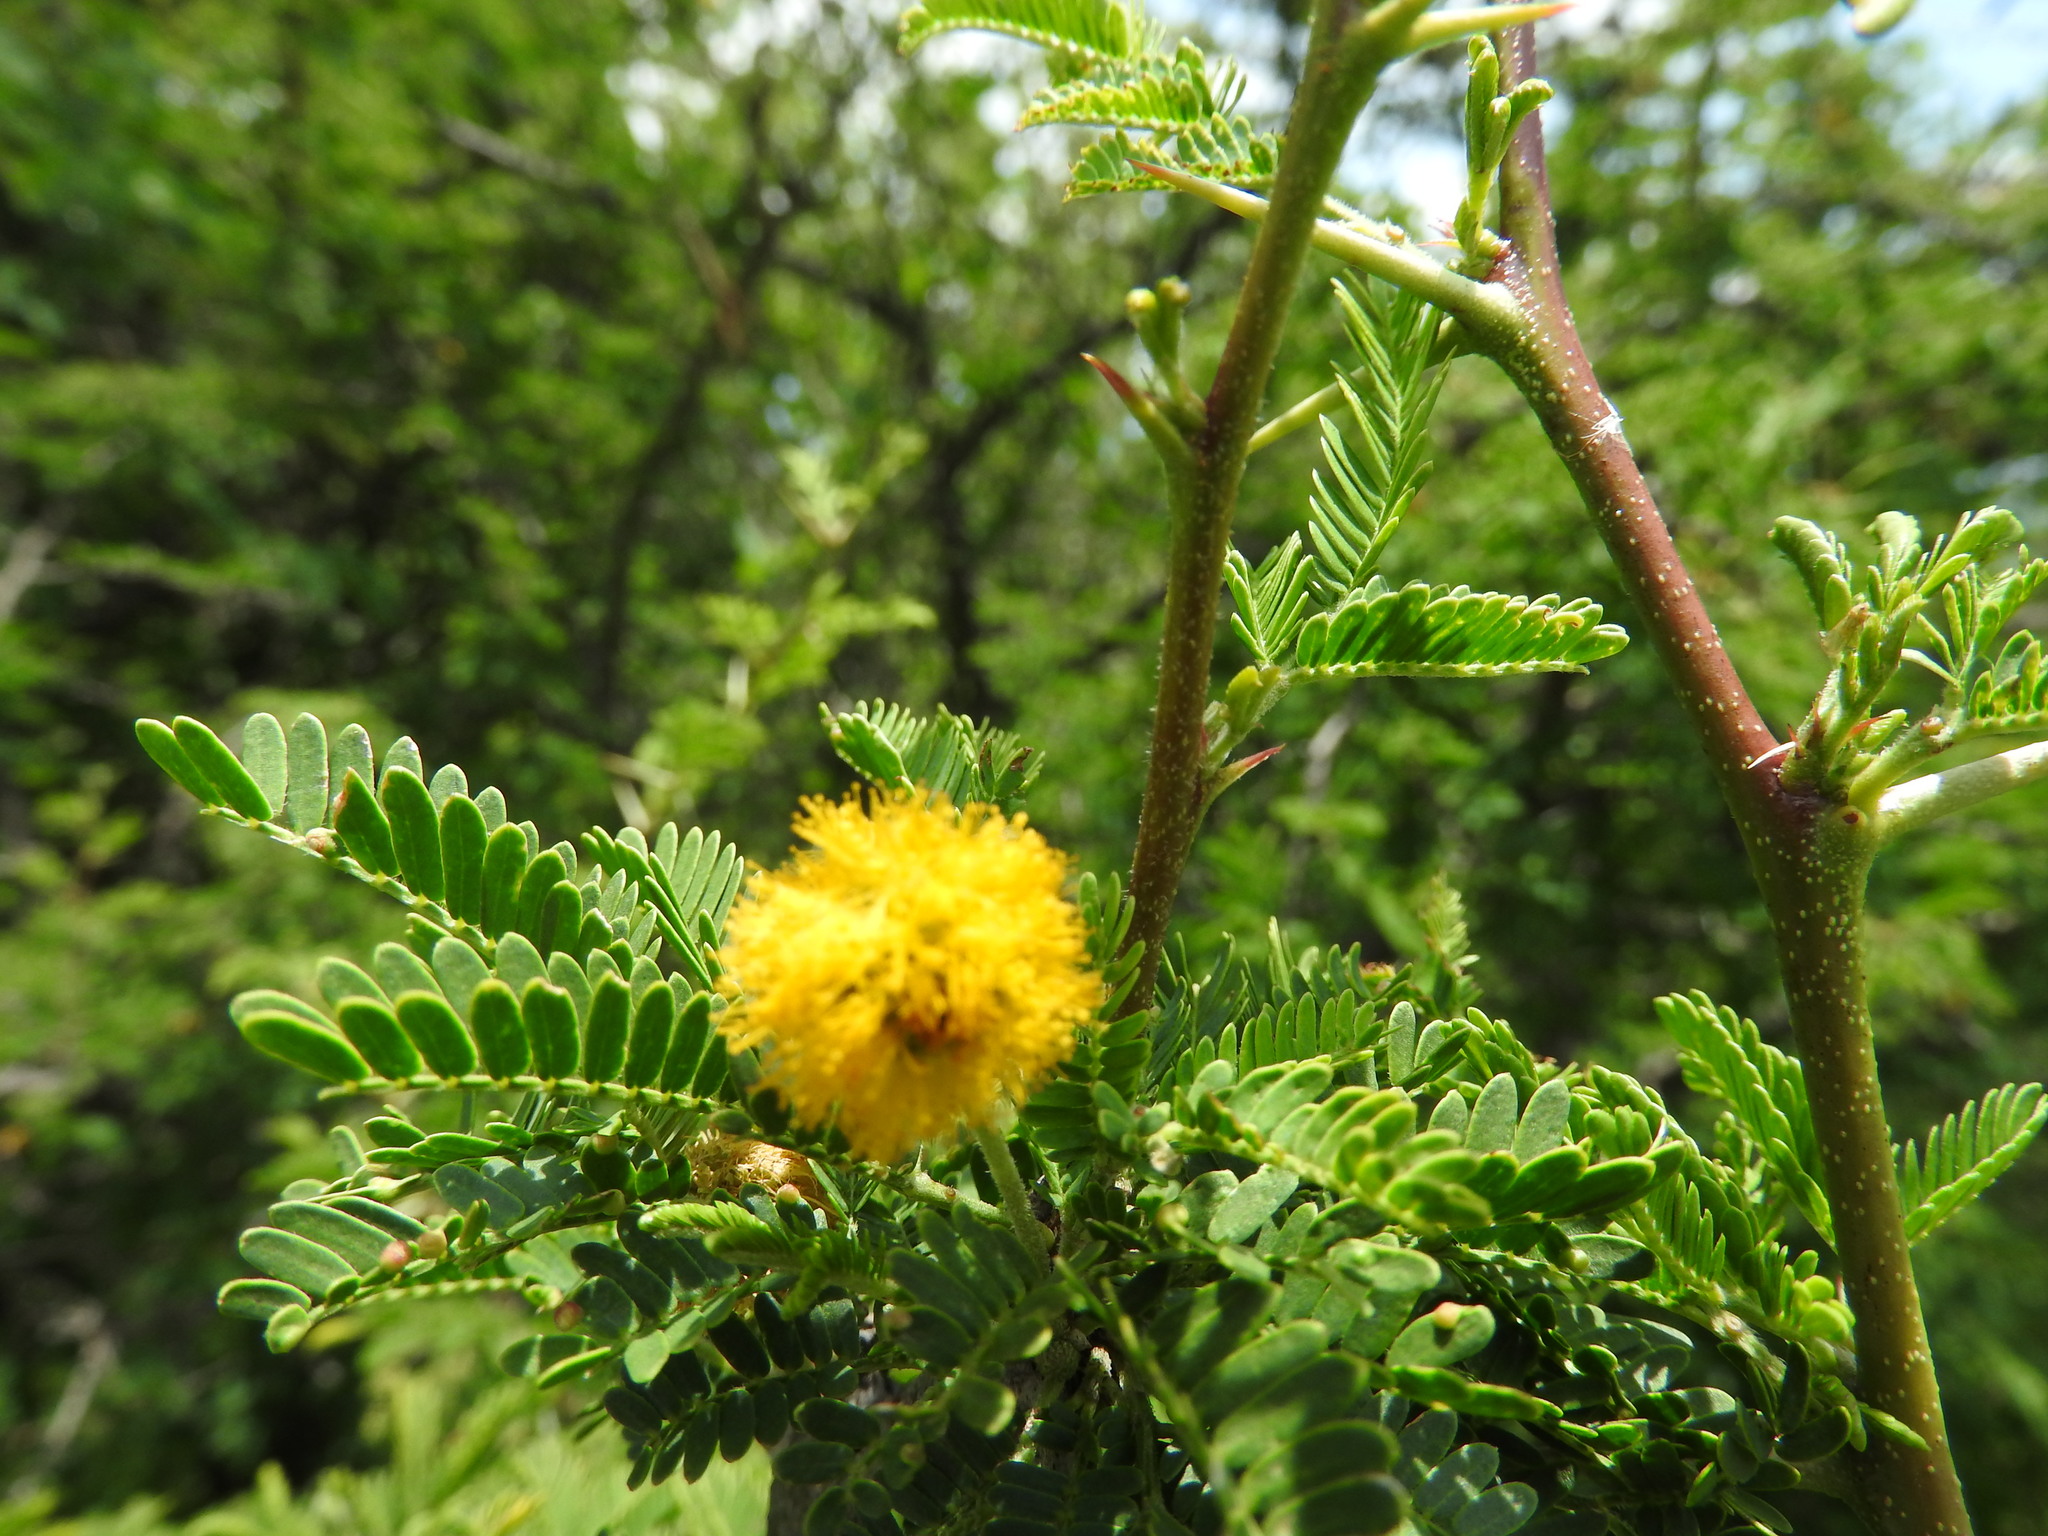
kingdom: Plantae
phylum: Tracheophyta
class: Magnoliopsida
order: Fabales
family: Fabaceae
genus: Vachellia
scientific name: Vachellia farnesiana
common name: Sweet acacia
